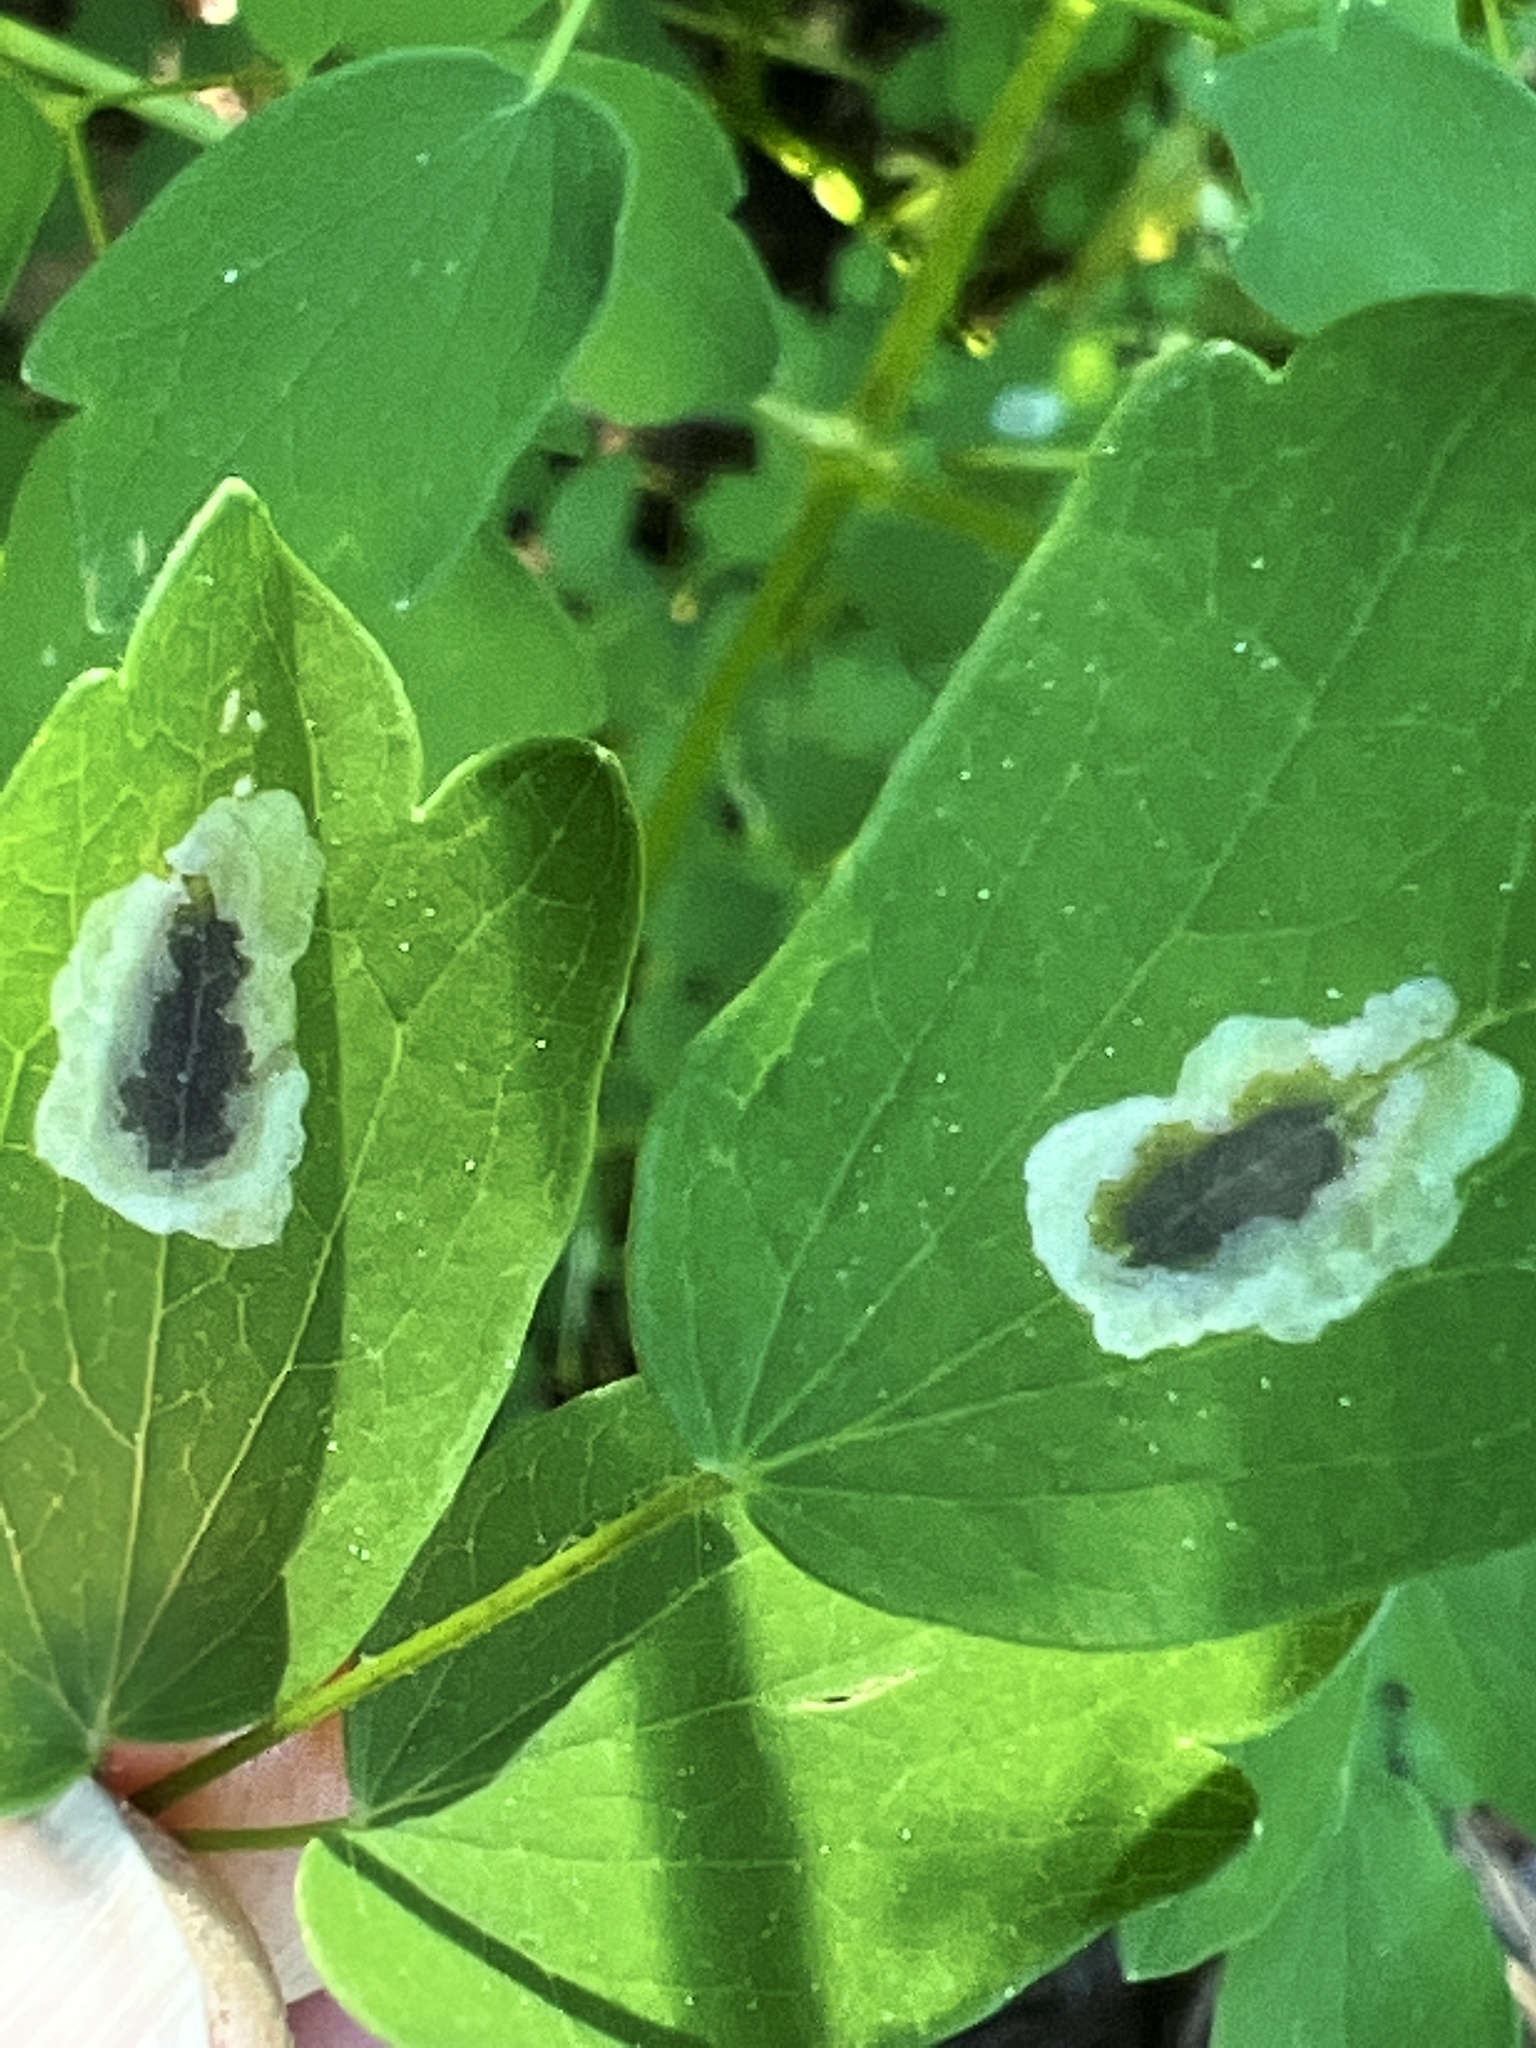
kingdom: Animalia
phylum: Arthropoda
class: Insecta
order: Diptera
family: Agromyzidae
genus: Phytomyza
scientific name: Phytomyza plumiseta
